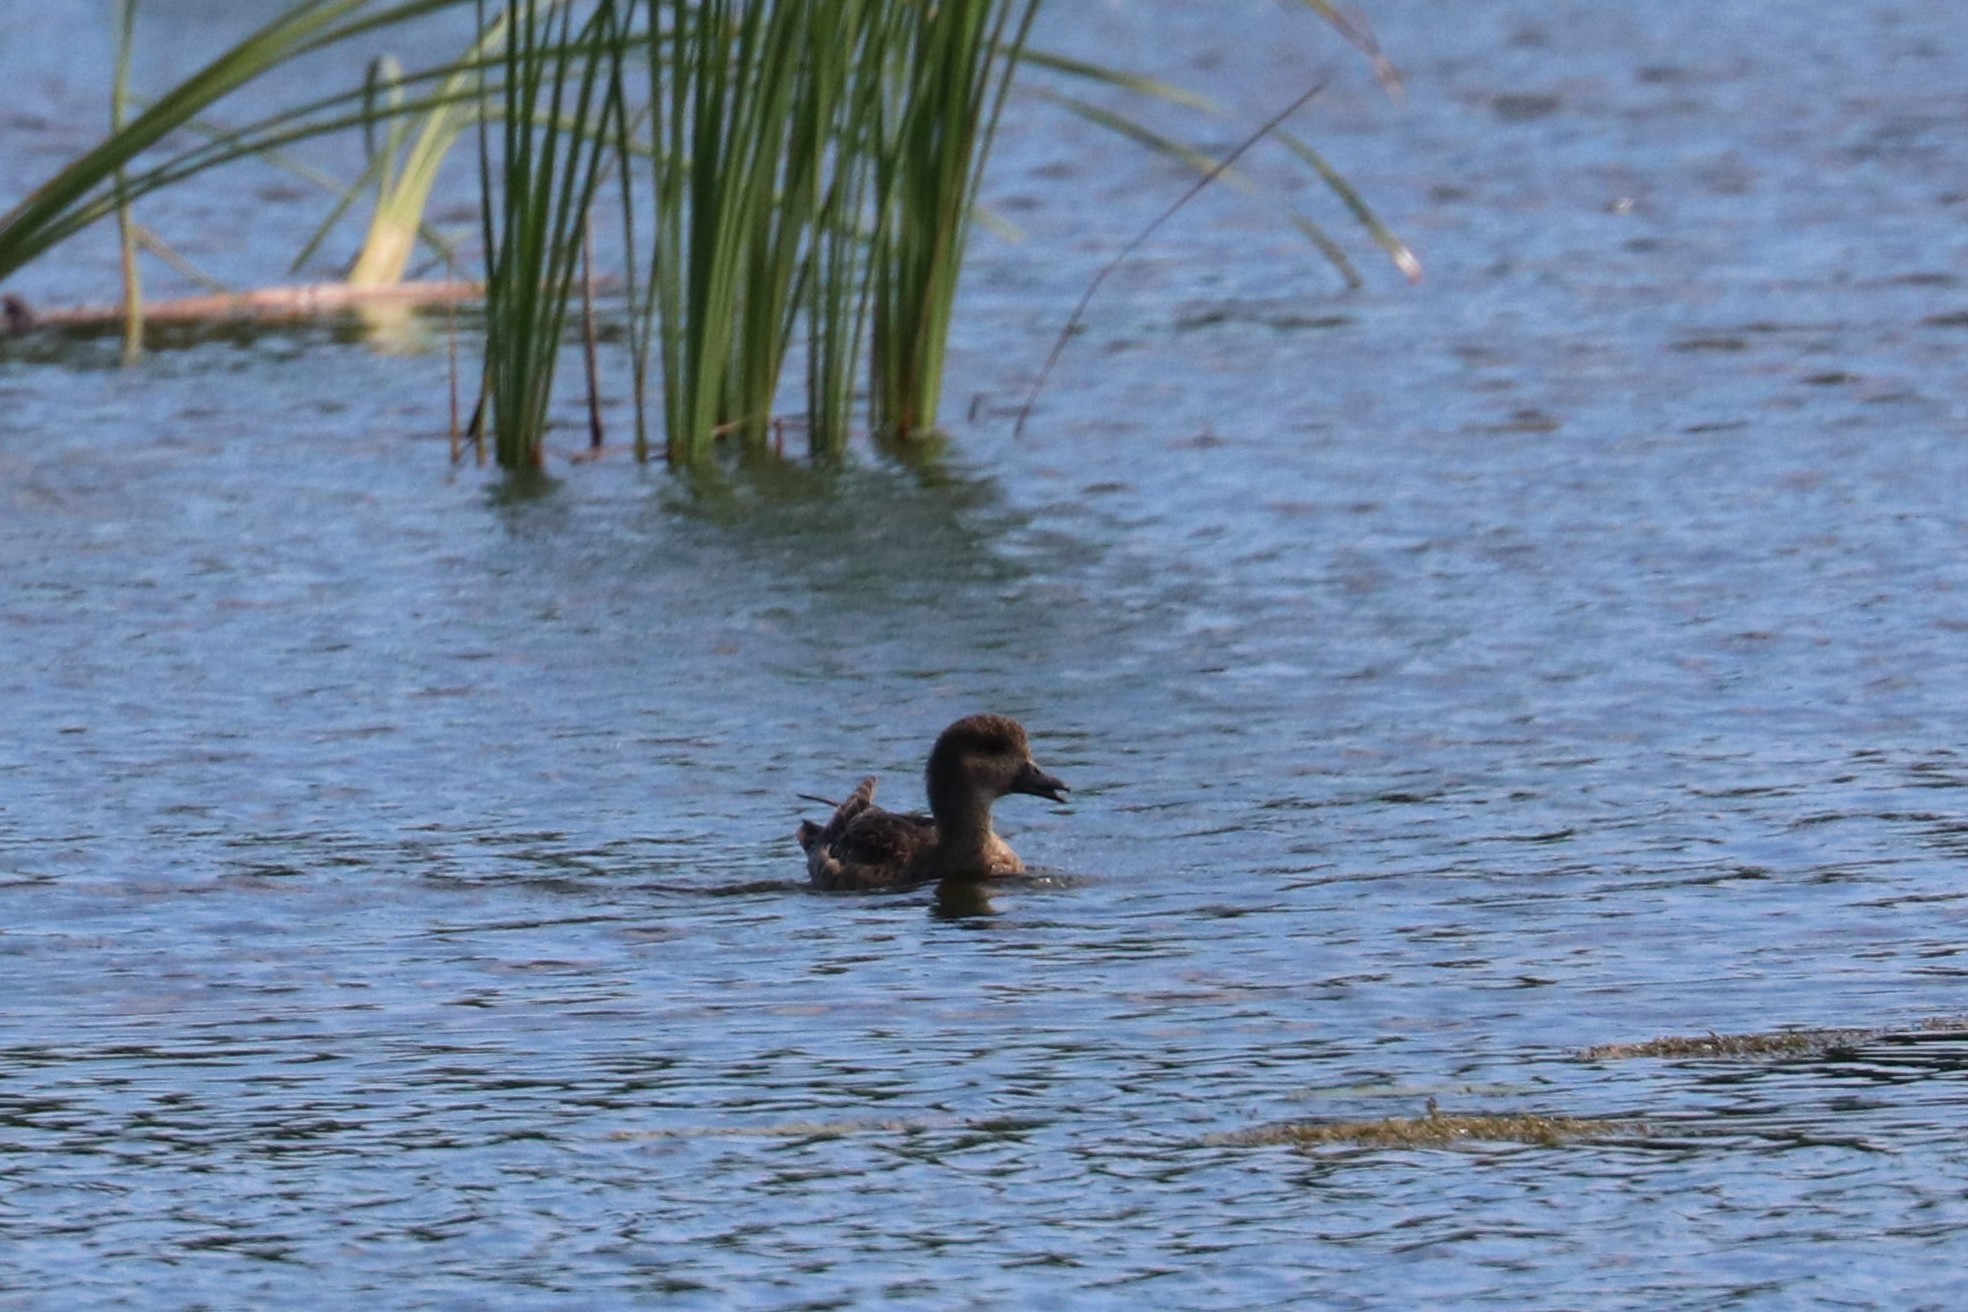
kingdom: Animalia
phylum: Chordata
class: Aves
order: Anseriformes
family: Anatidae
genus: Mareca
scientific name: Mareca penelope
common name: Eurasian wigeon
